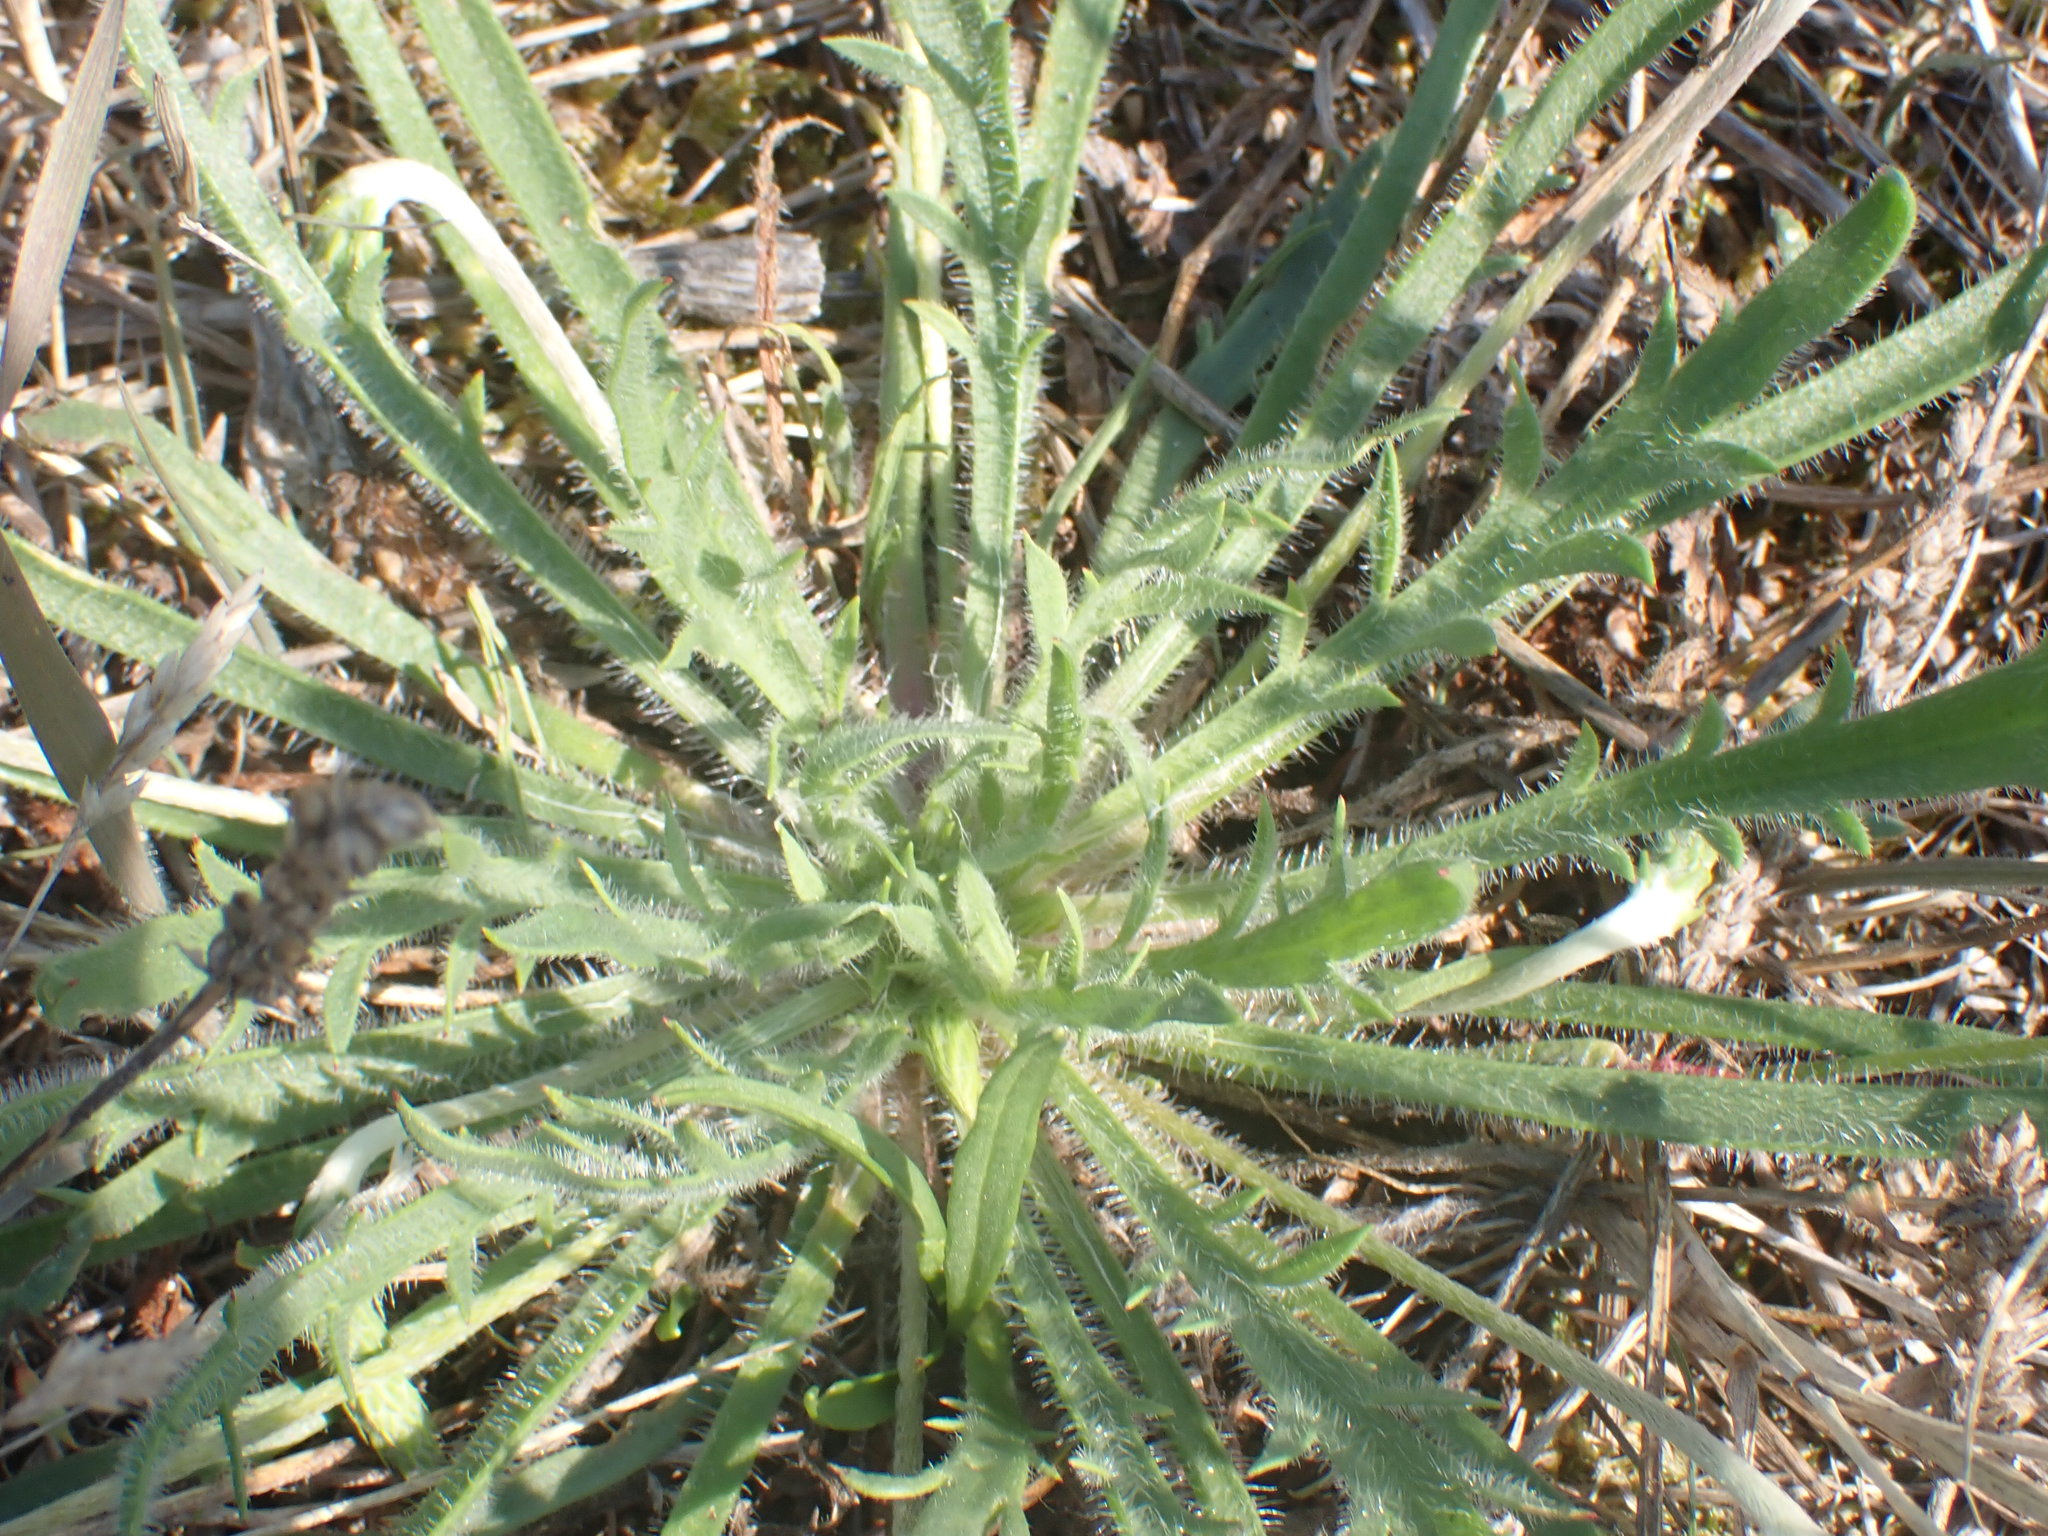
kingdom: Plantae
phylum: Tracheophyta
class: Magnoliopsida
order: Lamiales
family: Plantaginaceae
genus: Plantago
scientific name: Plantago coronopus
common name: Buck's-horn plantain
